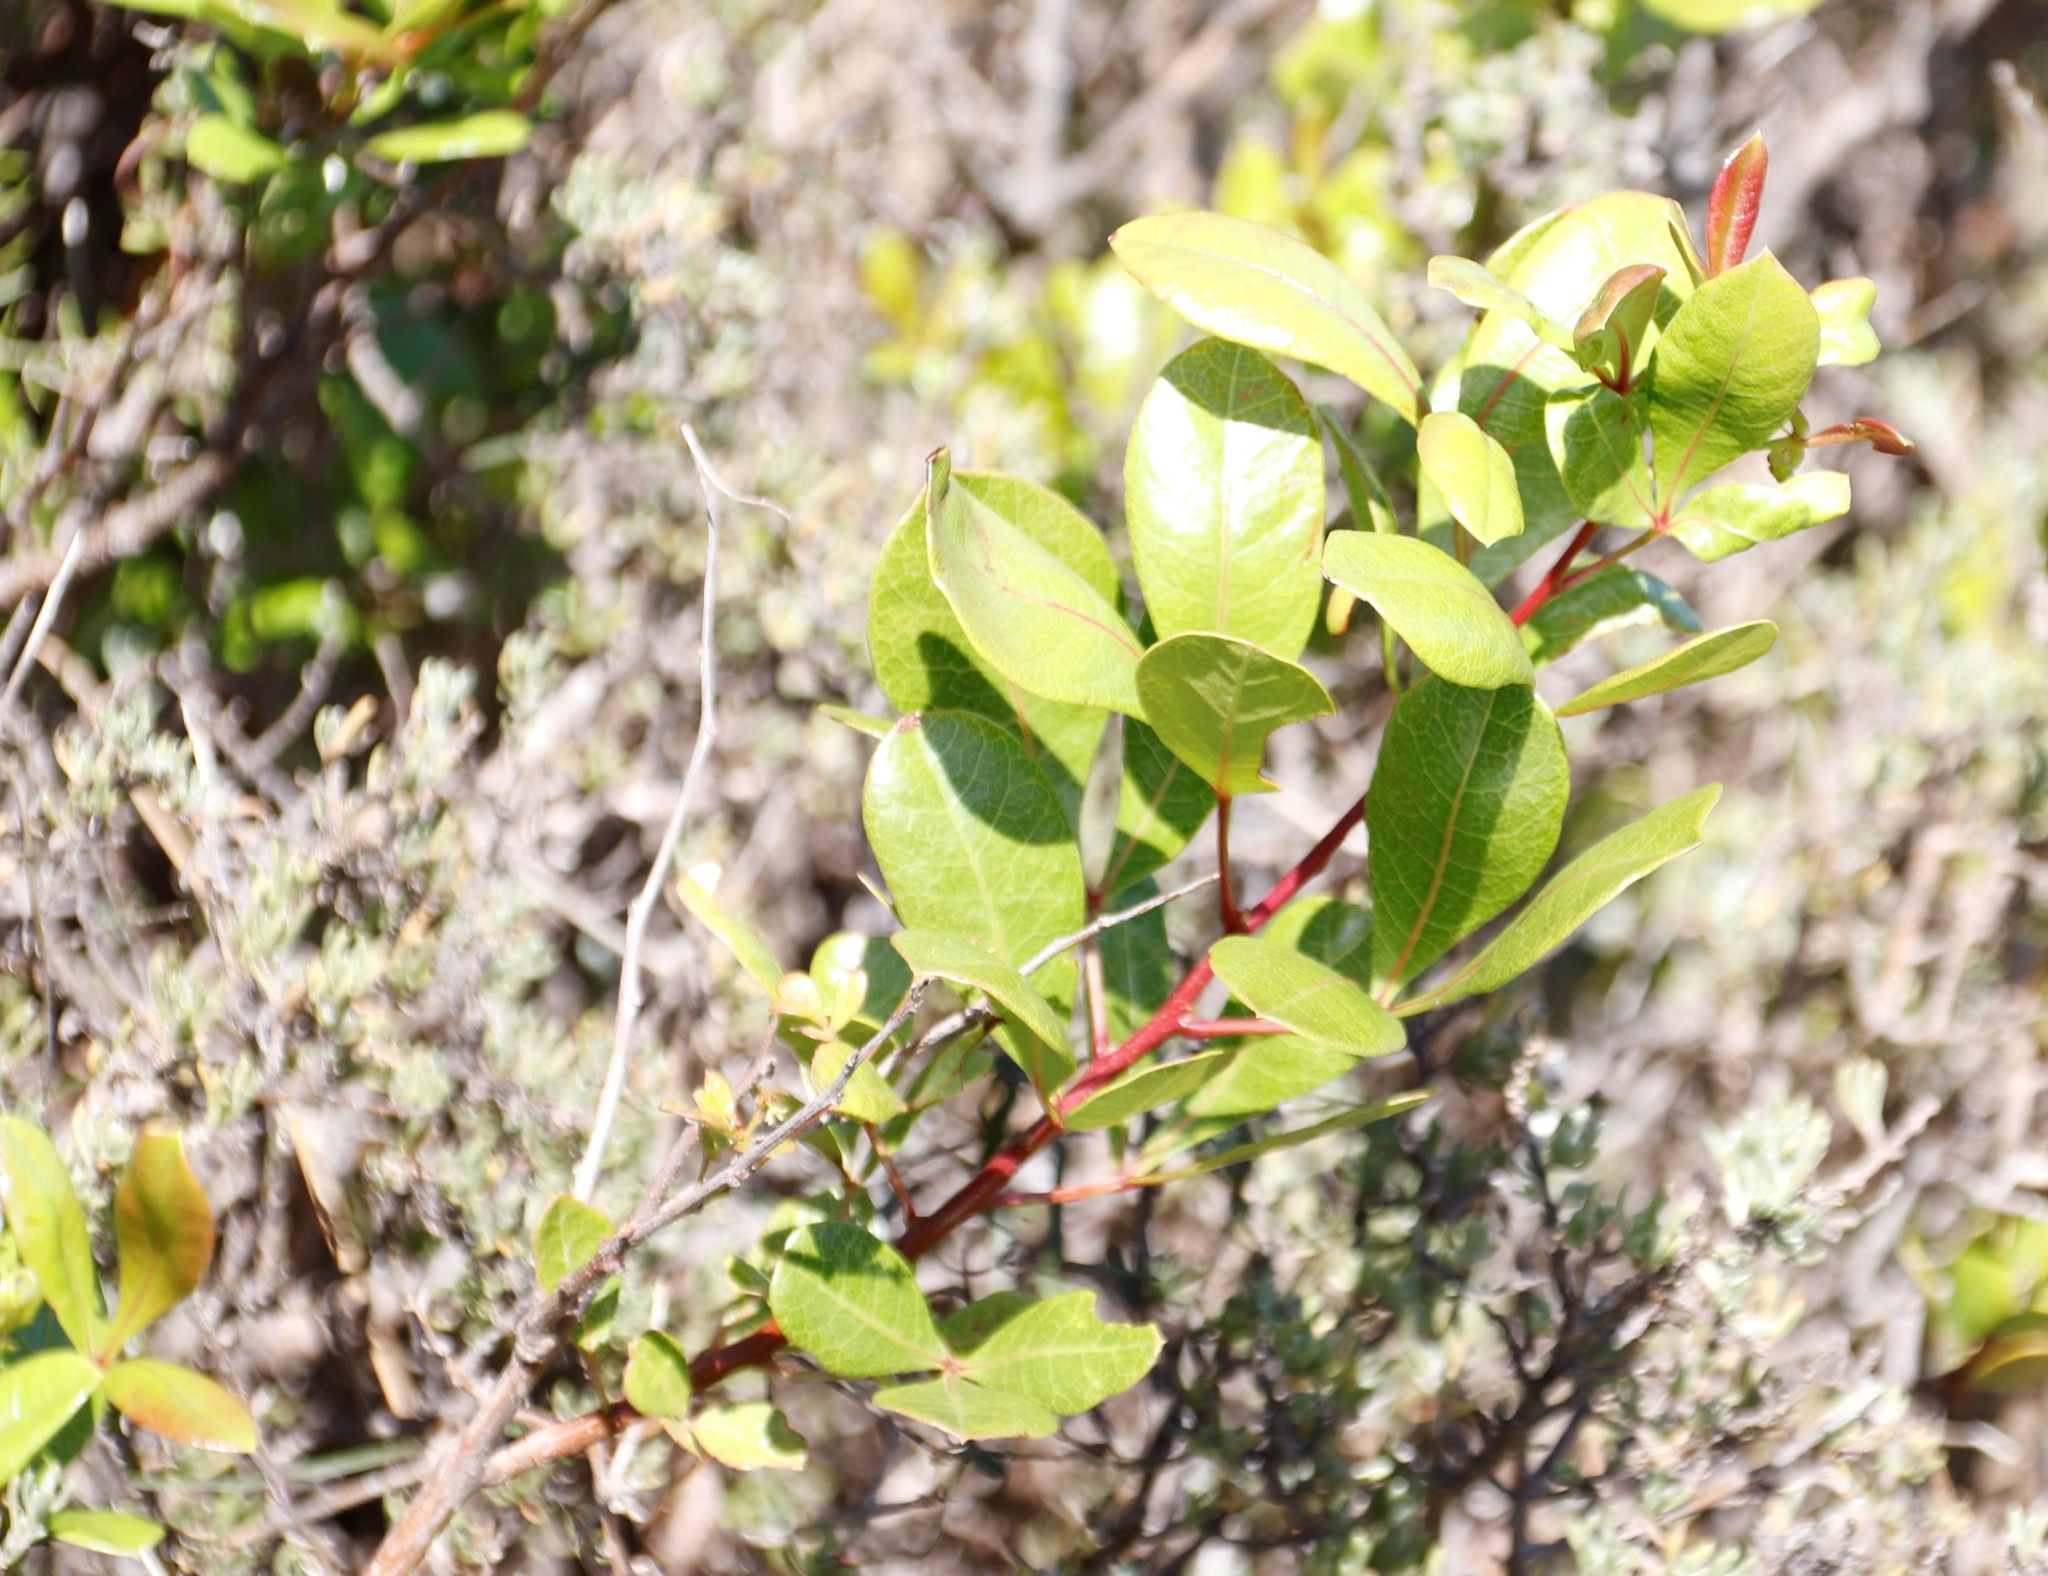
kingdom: Plantae
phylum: Tracheophyta
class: Magnoliopsida
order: Sapindales
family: Anacardiaceae
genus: Searsia
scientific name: Searsia laevigata
